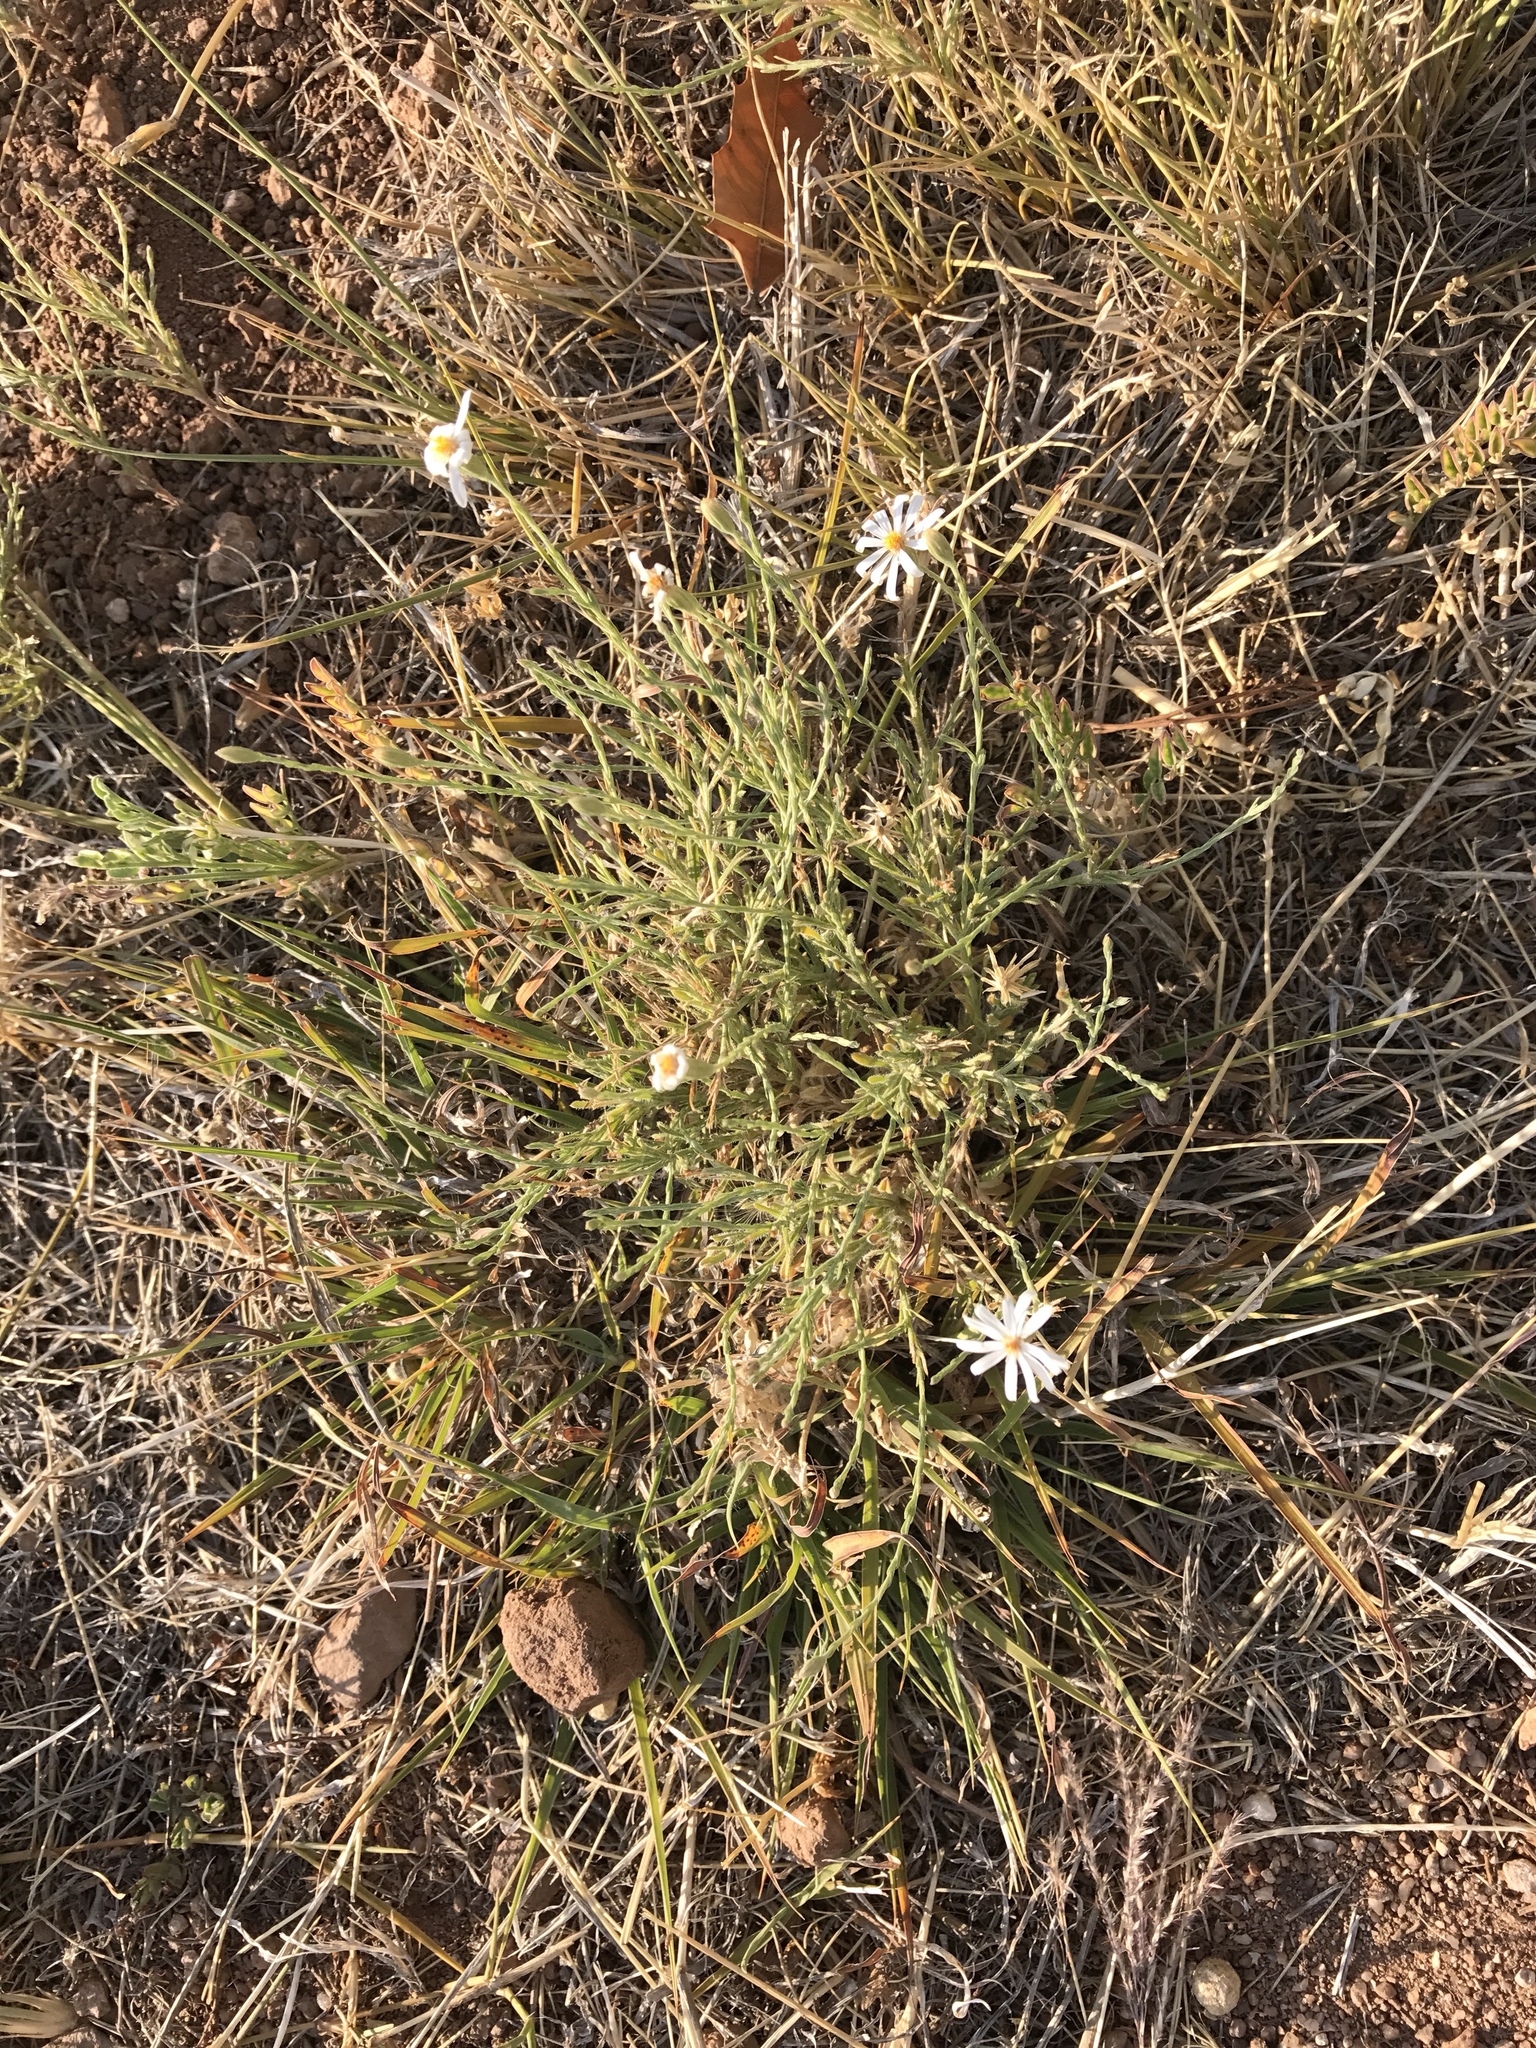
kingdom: Plantae
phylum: Tracheophyta
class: Magnoliopsida
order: Asterales
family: Asteraceae
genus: Chaetopappa
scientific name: Chaetopappa ericoides
